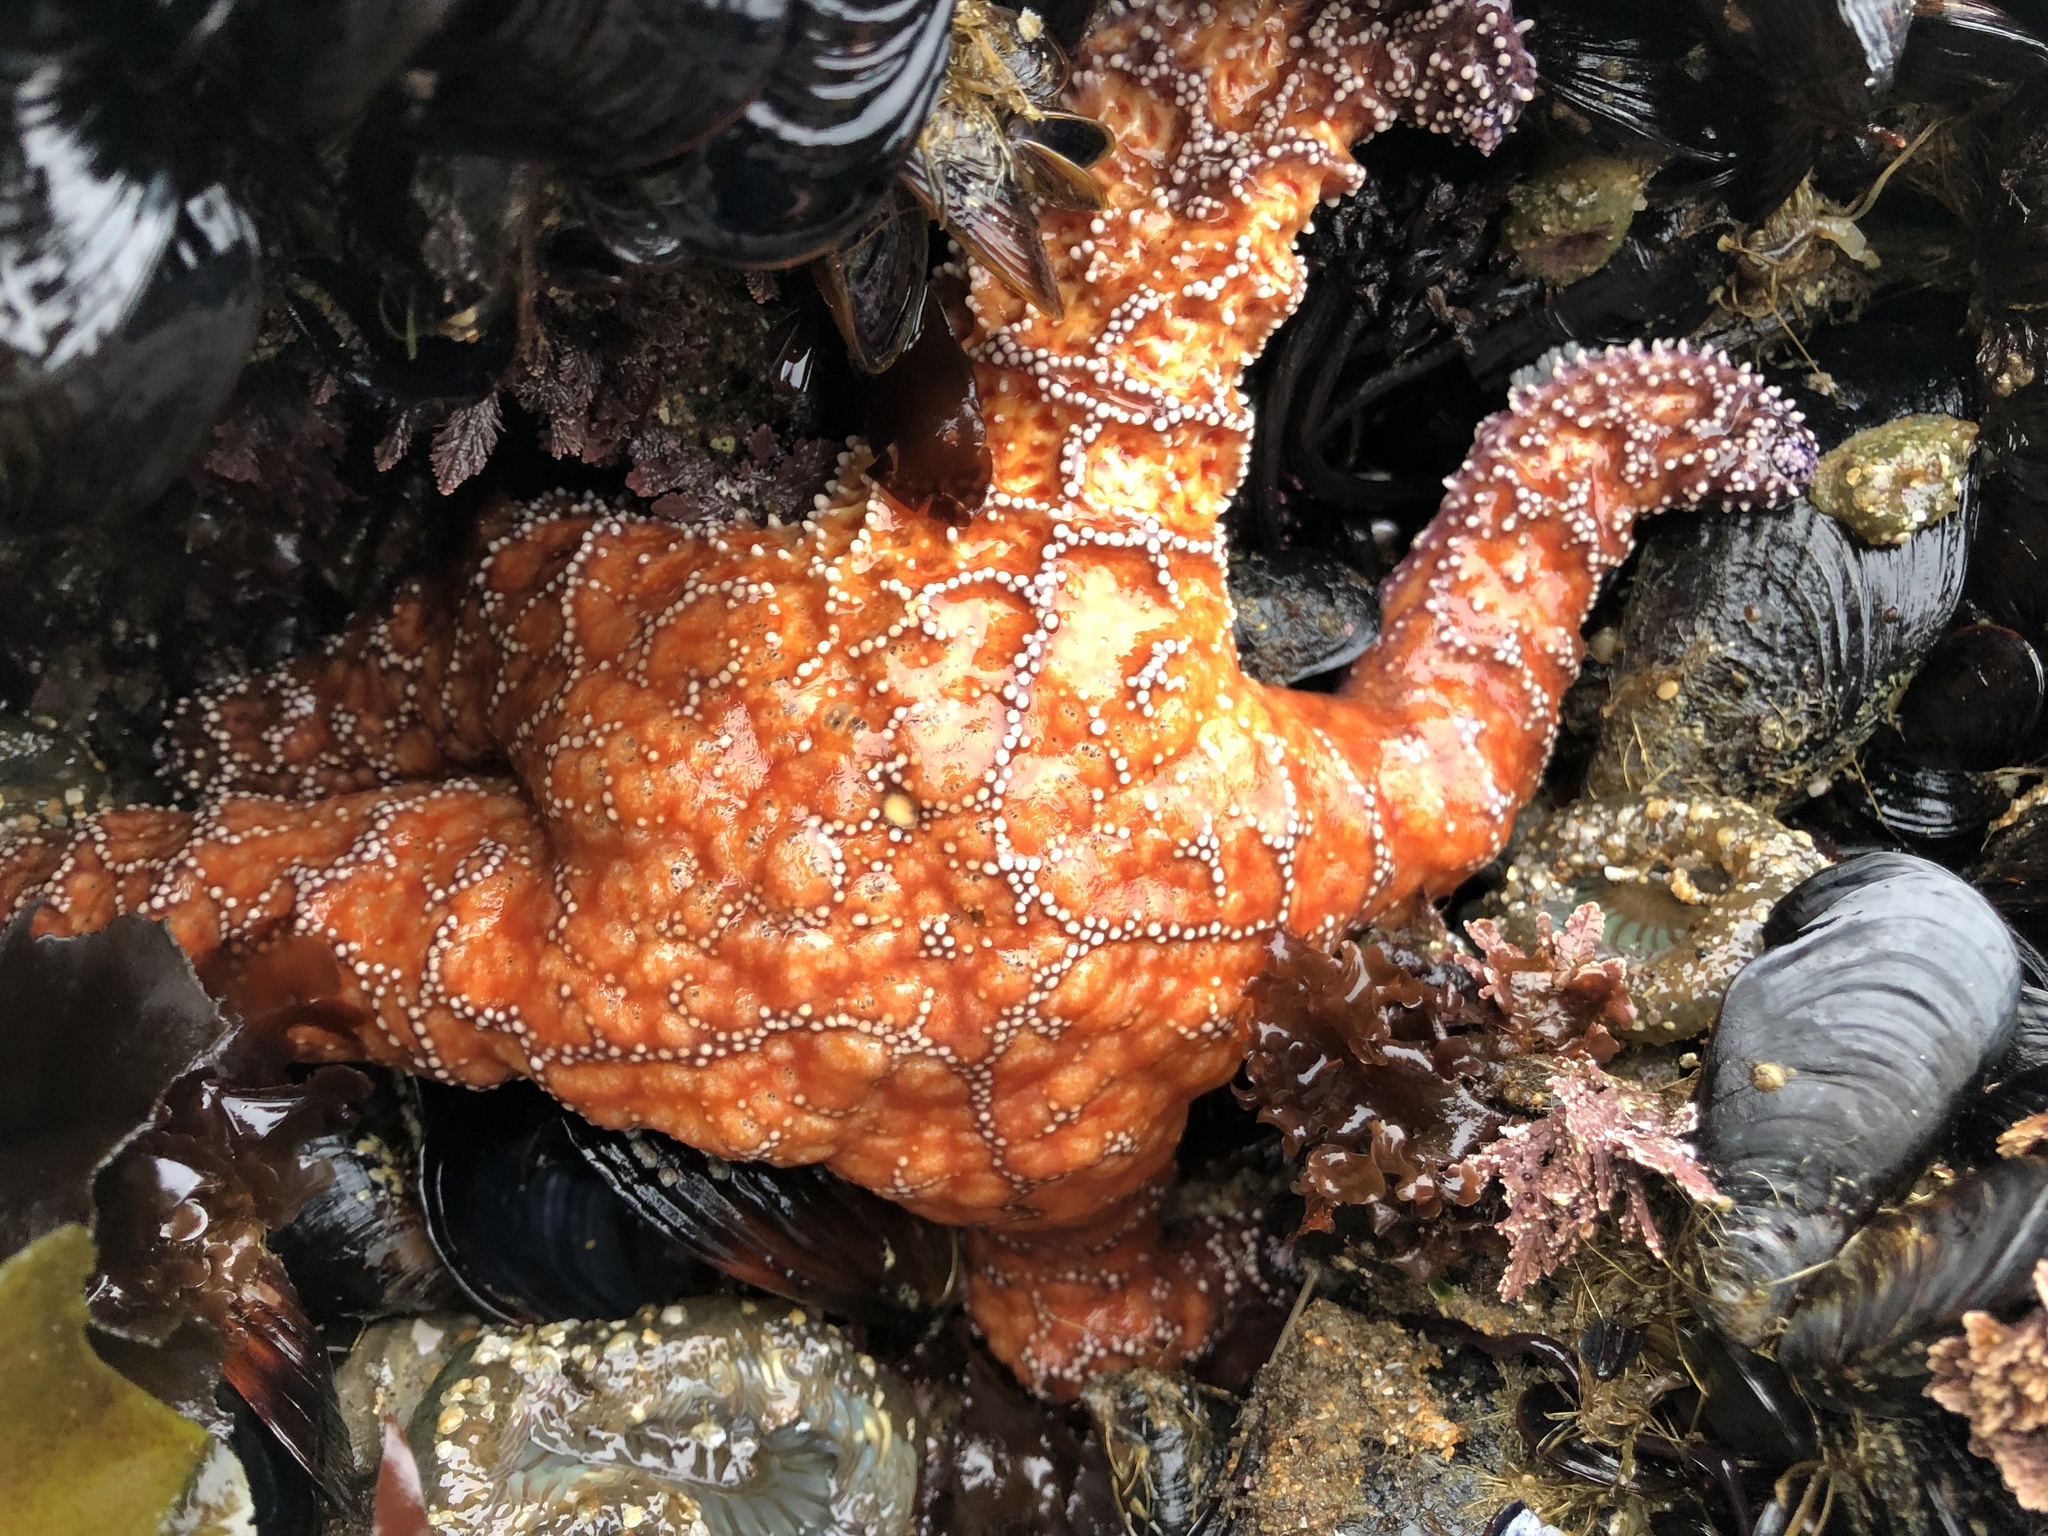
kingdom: Animalia
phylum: Echinodermata
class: Asteroidea
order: Forcipulatida
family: Asteriidae
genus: Pisaster
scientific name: Pisaster ochraceus
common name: Ochre stars
